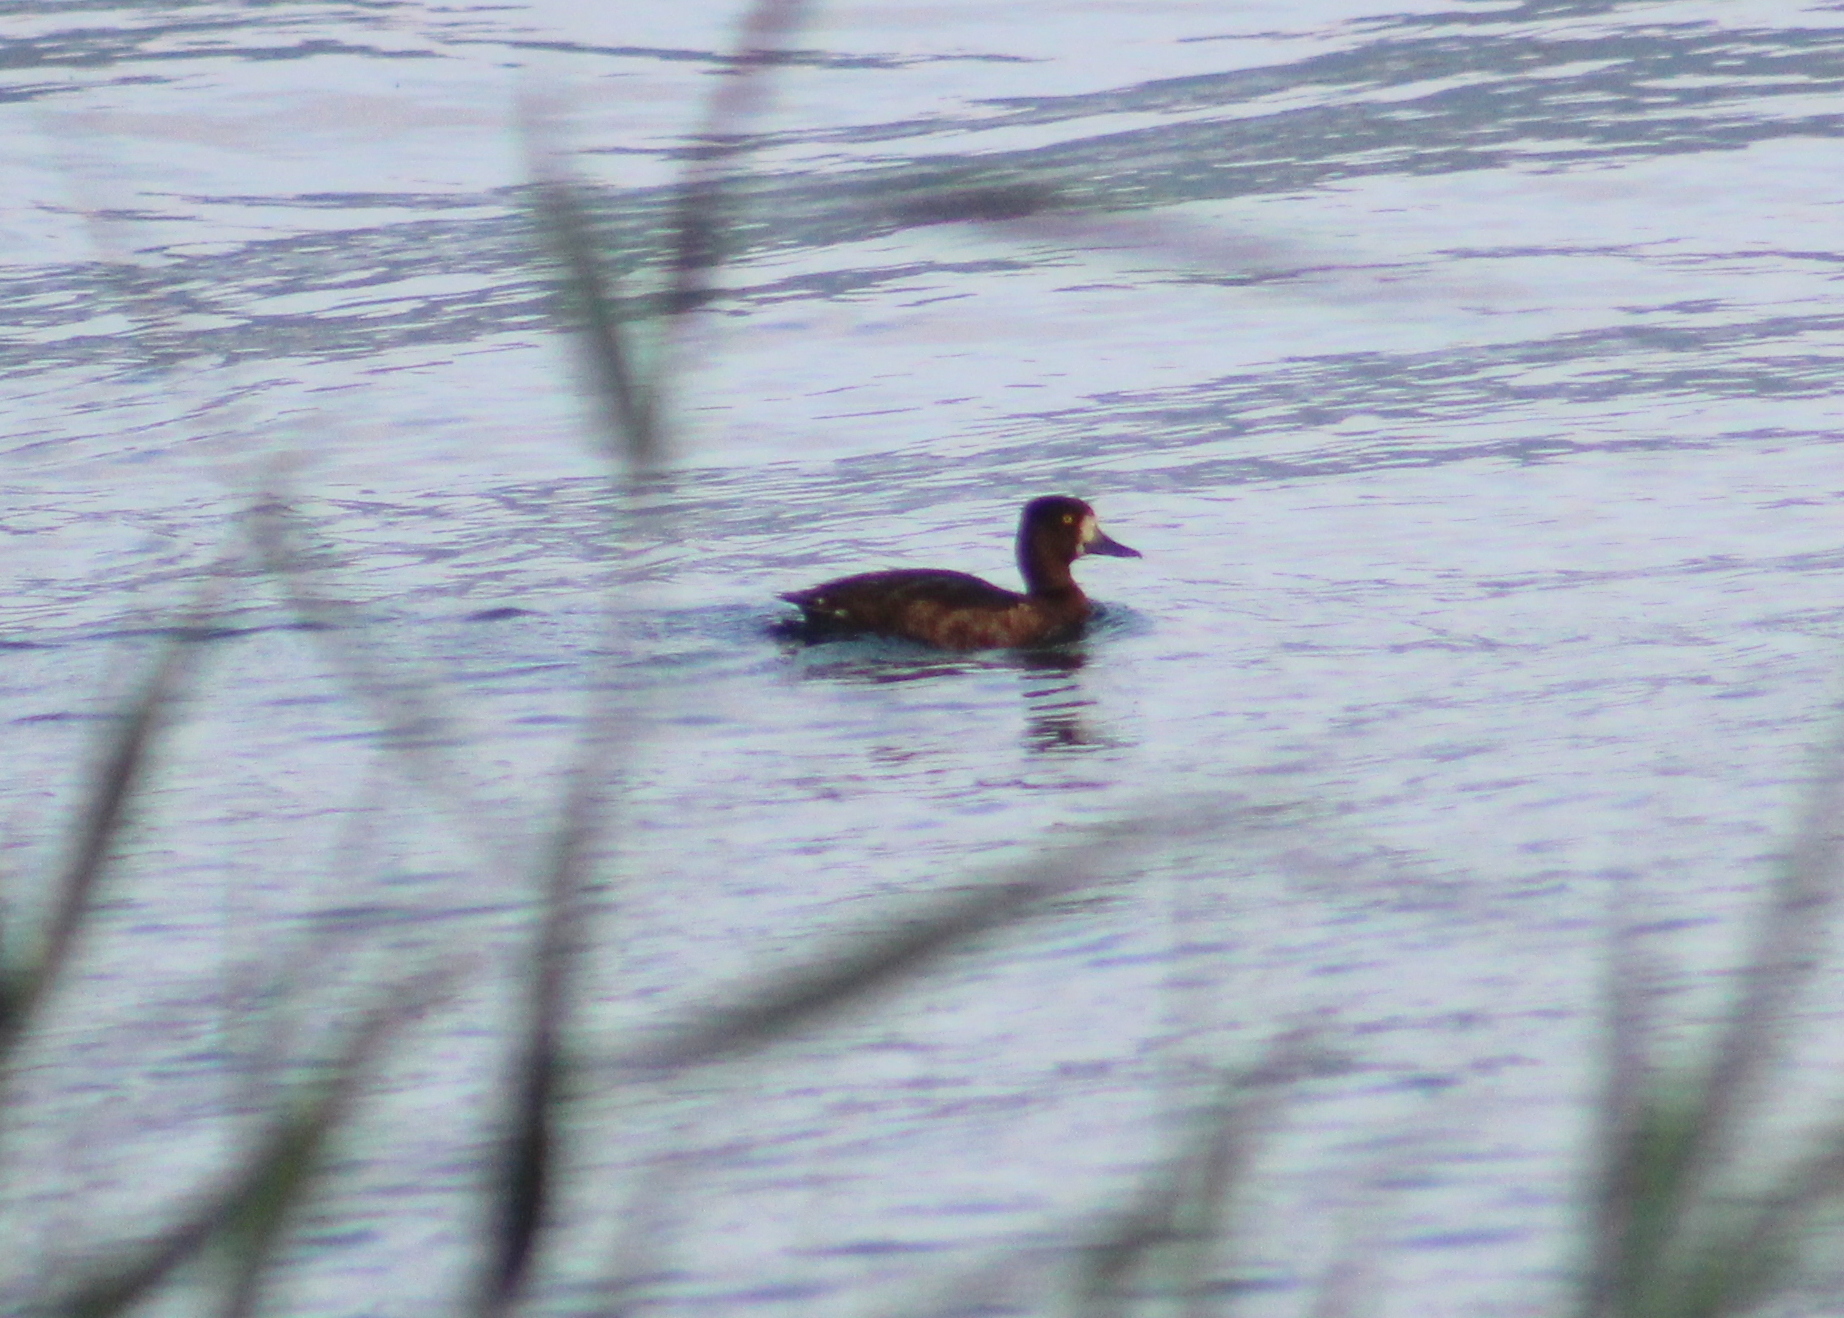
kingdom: Animalia
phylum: Chordata
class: Aves
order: Anseriformes
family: Anatidae
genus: Aythya
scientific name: Aythya fuligula
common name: Tufted duck
